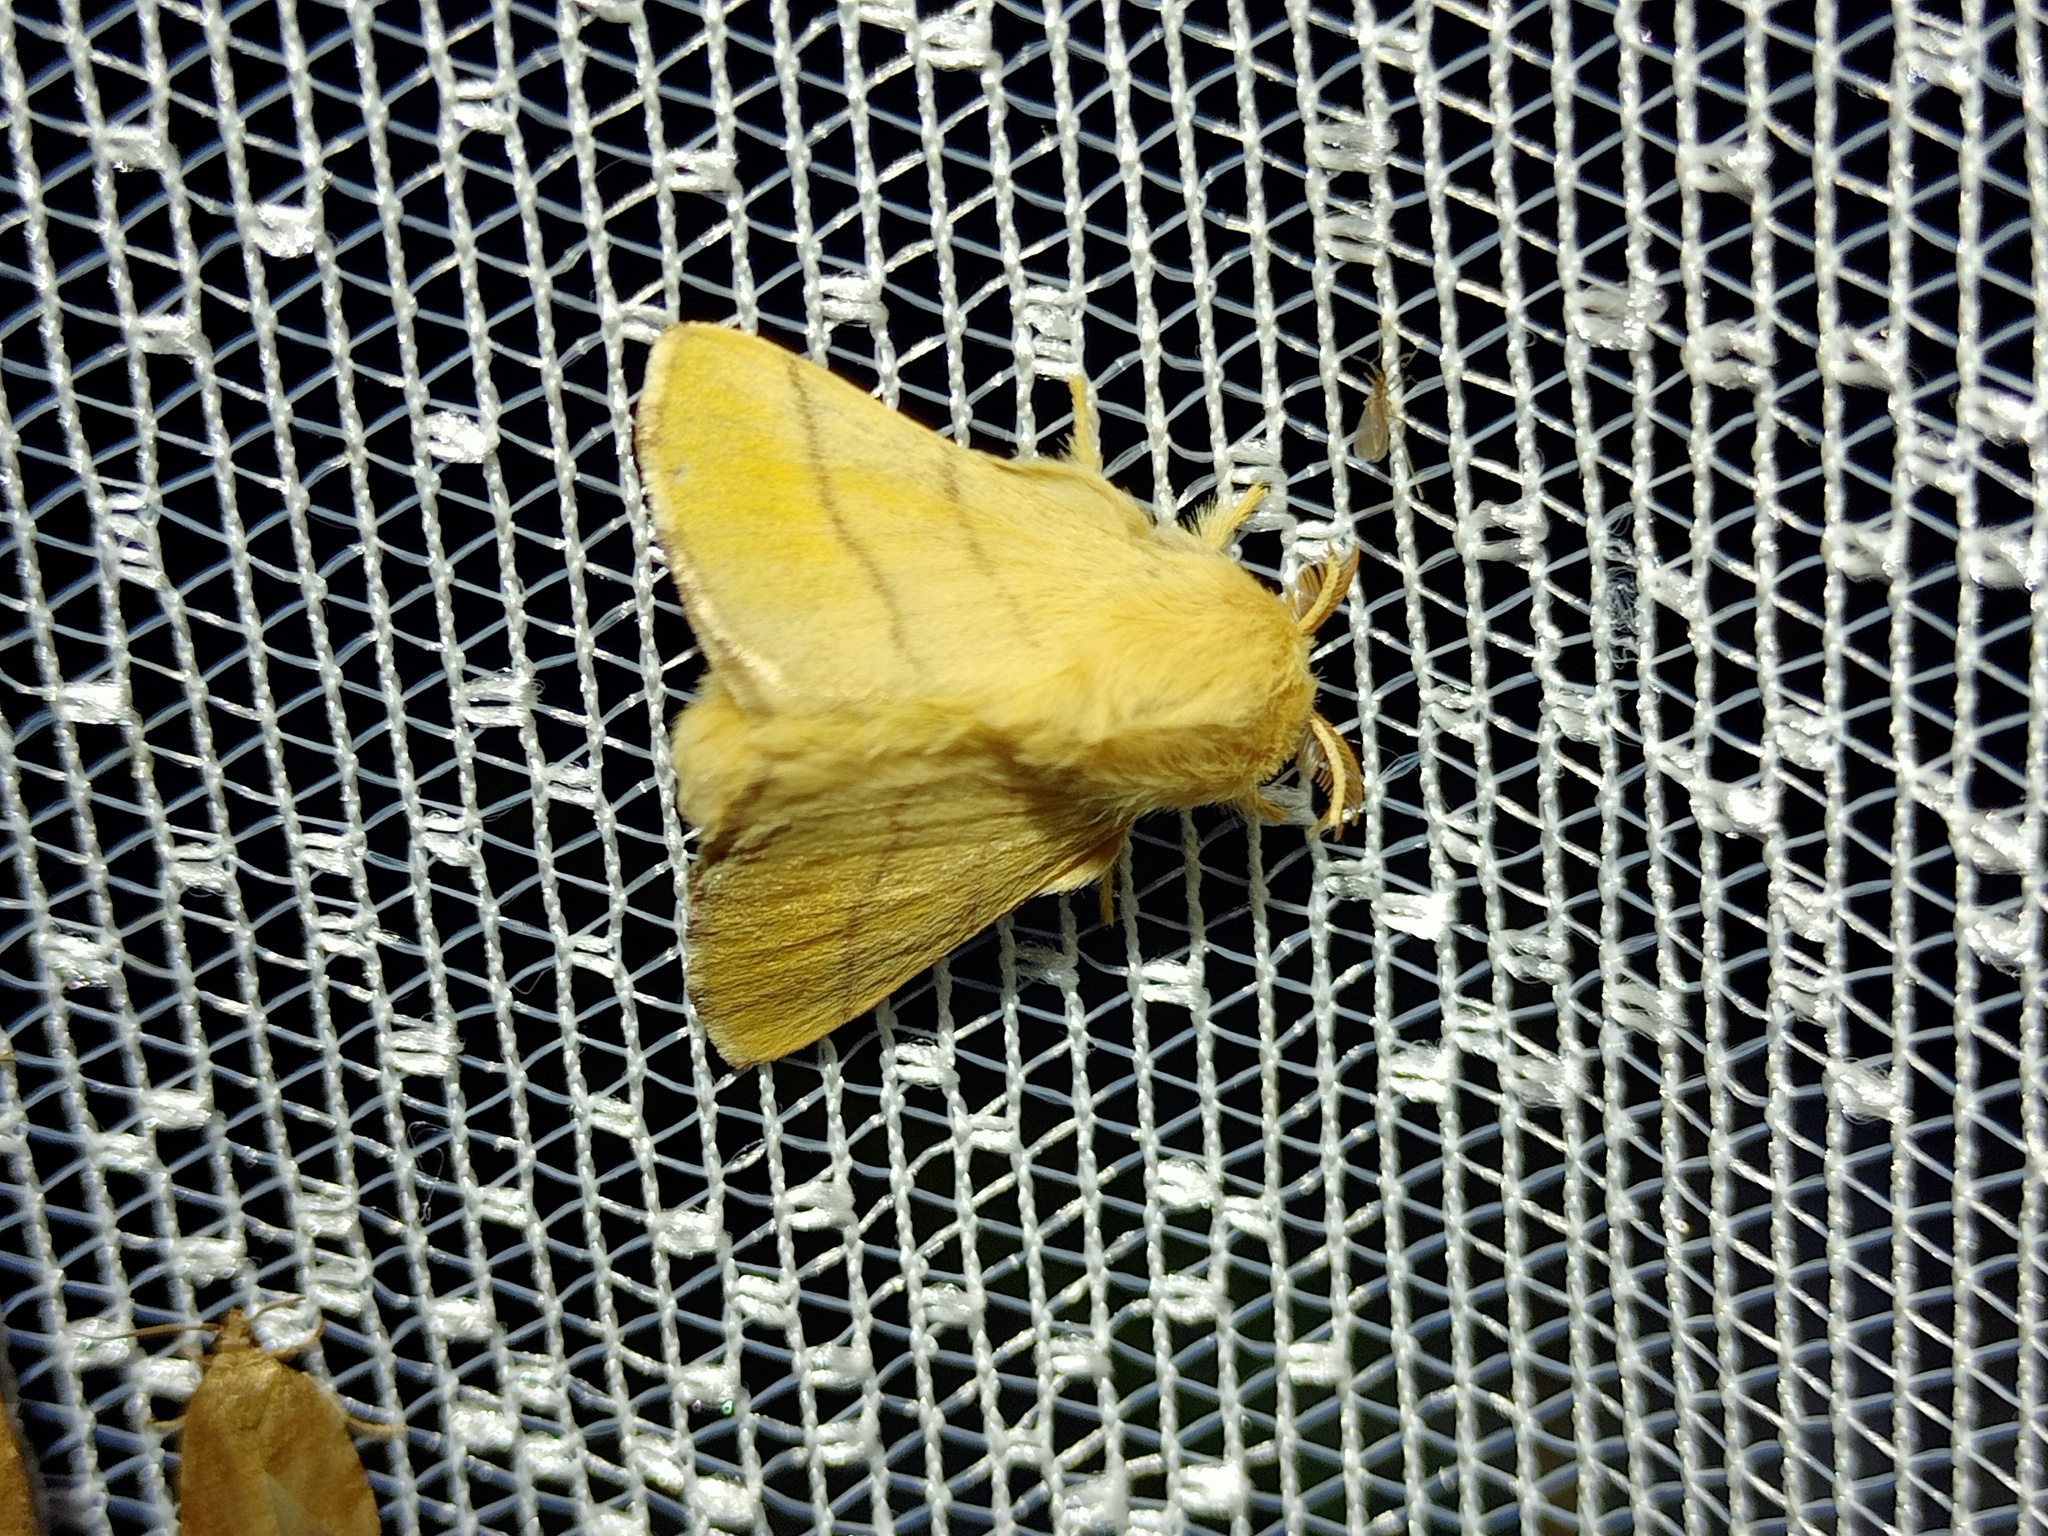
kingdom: Animalia
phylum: Arthropoda
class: Insecta
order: Lepidoptera
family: Lasiocampidae
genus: Malacosoma
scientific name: Malacosoma neustria
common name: The lackey
